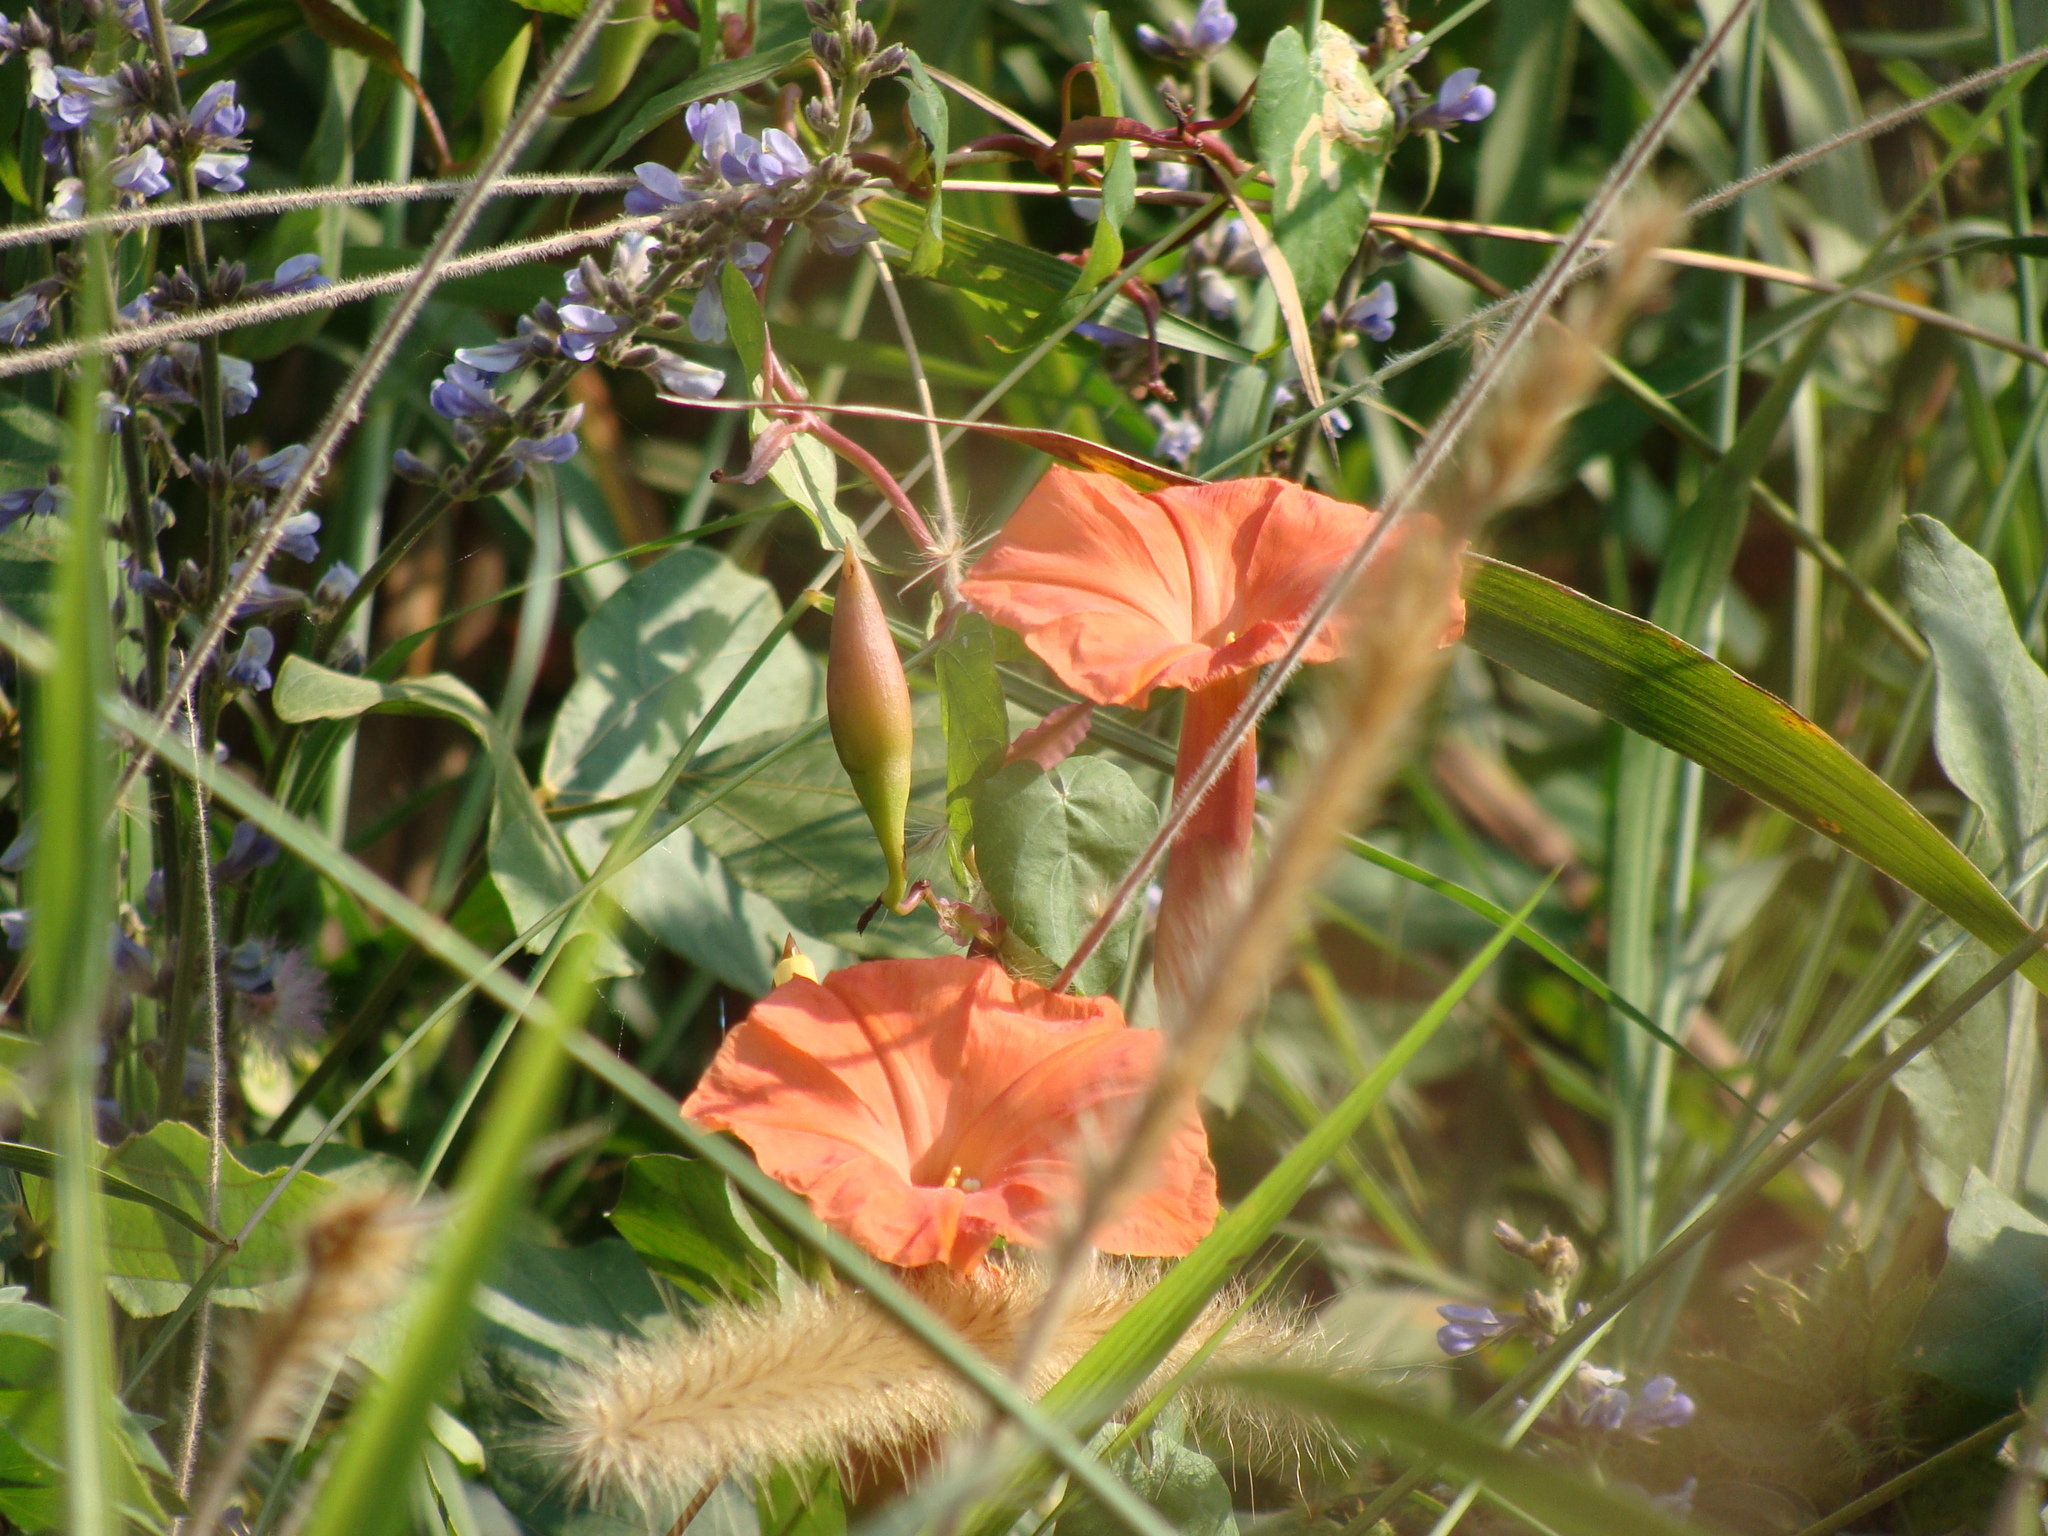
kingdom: Plantae
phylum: Tracheophyta
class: Magnoliopsida
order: Solanales
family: Convolvulaceae
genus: Operculina
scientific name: Operculina pteripes
